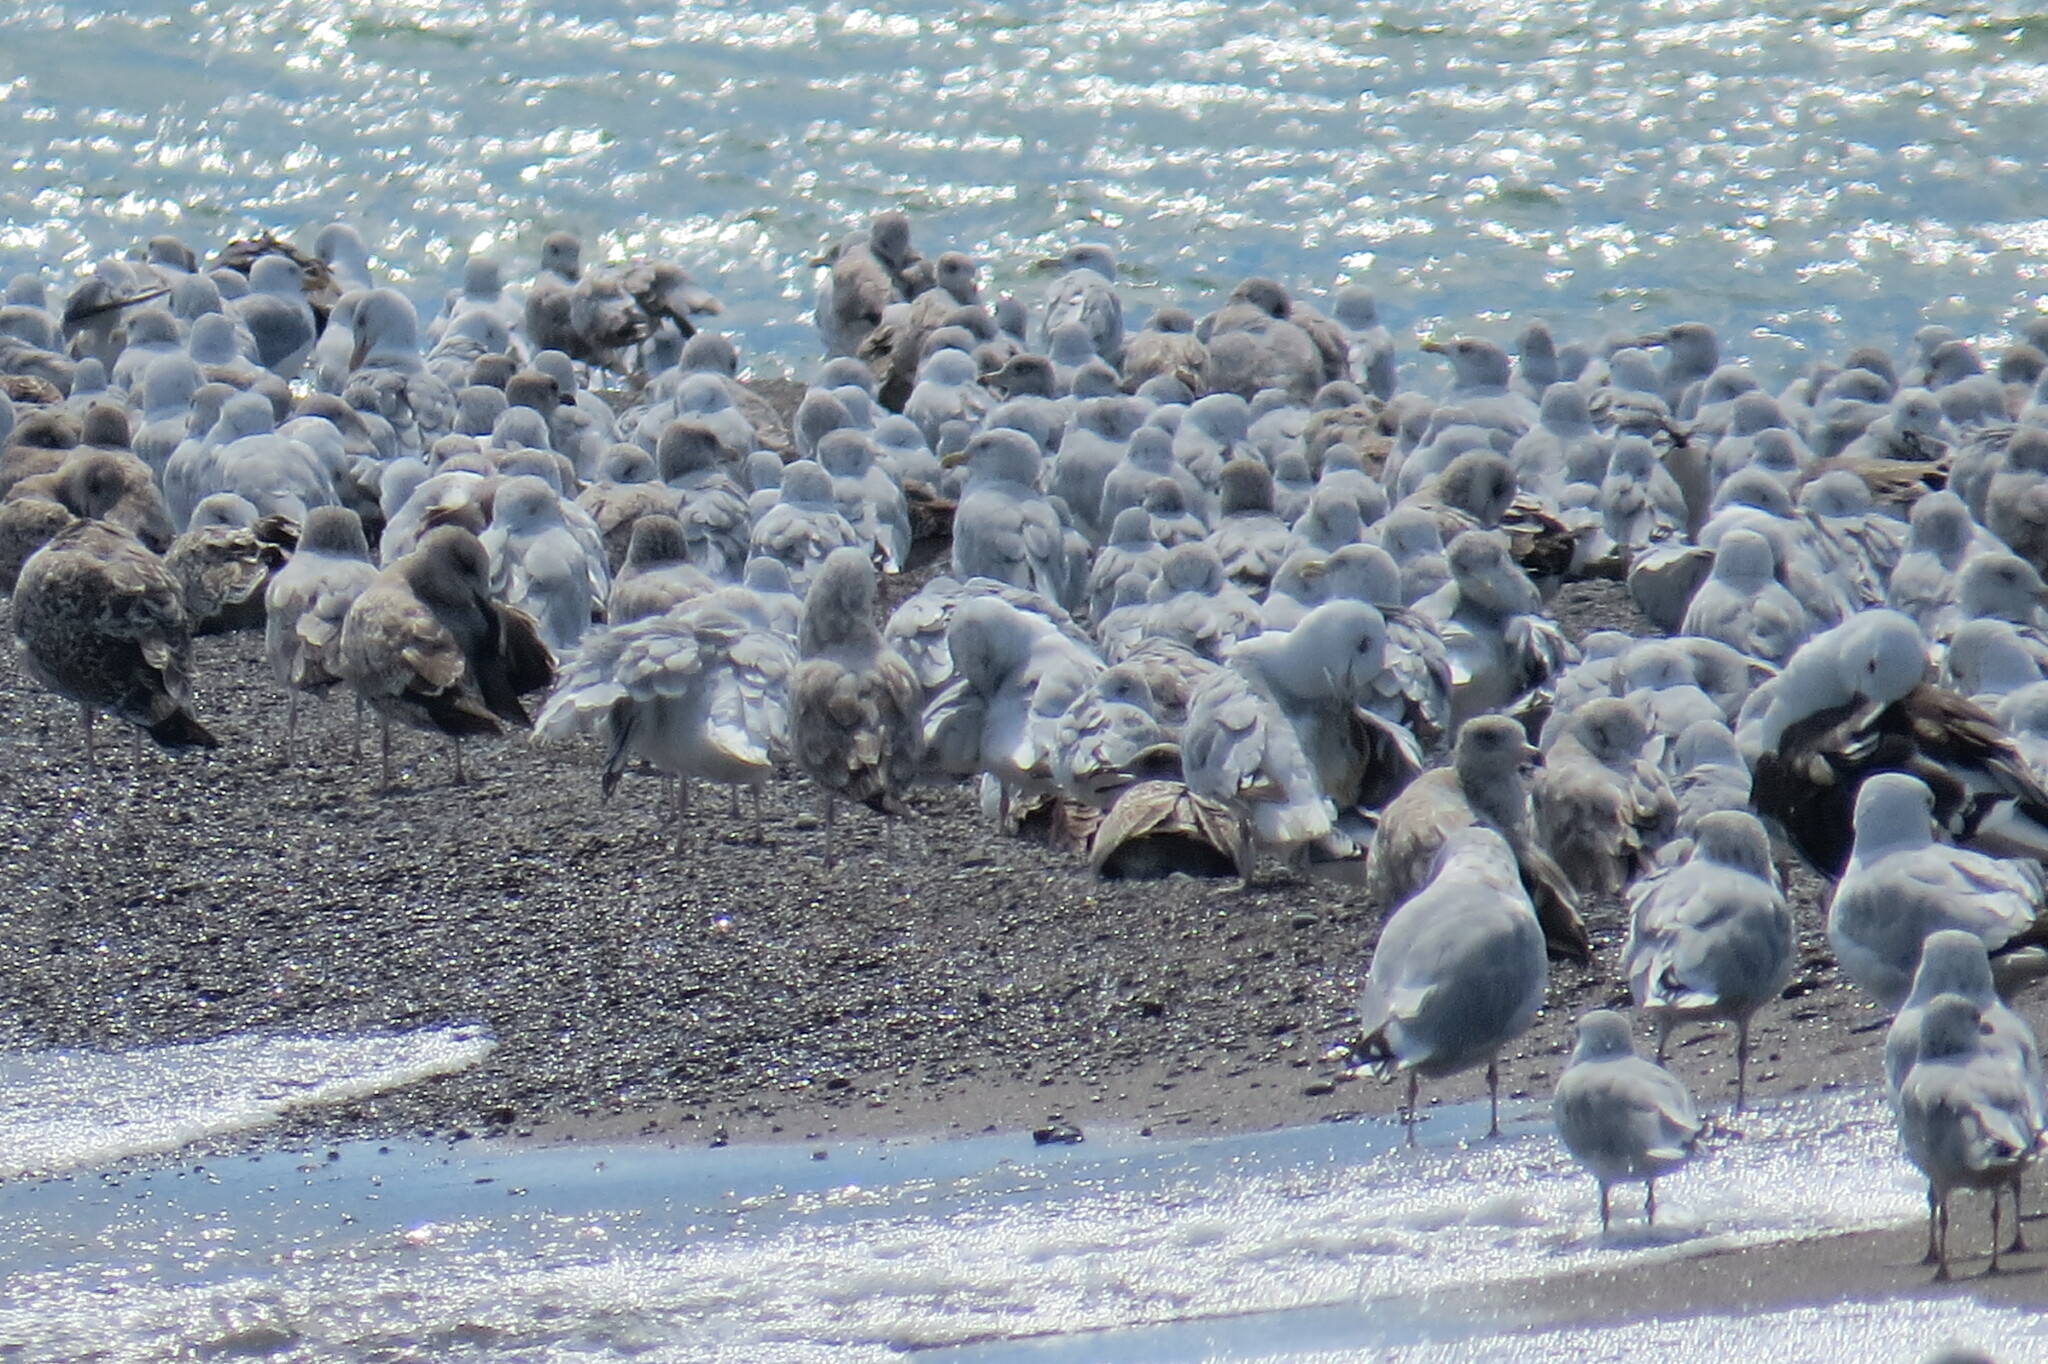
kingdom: Animalia
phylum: Chordata
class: Aves
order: Charadriiformes
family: Laridae
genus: Larus
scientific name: Larus delawarensis
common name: Ring-billed gull
